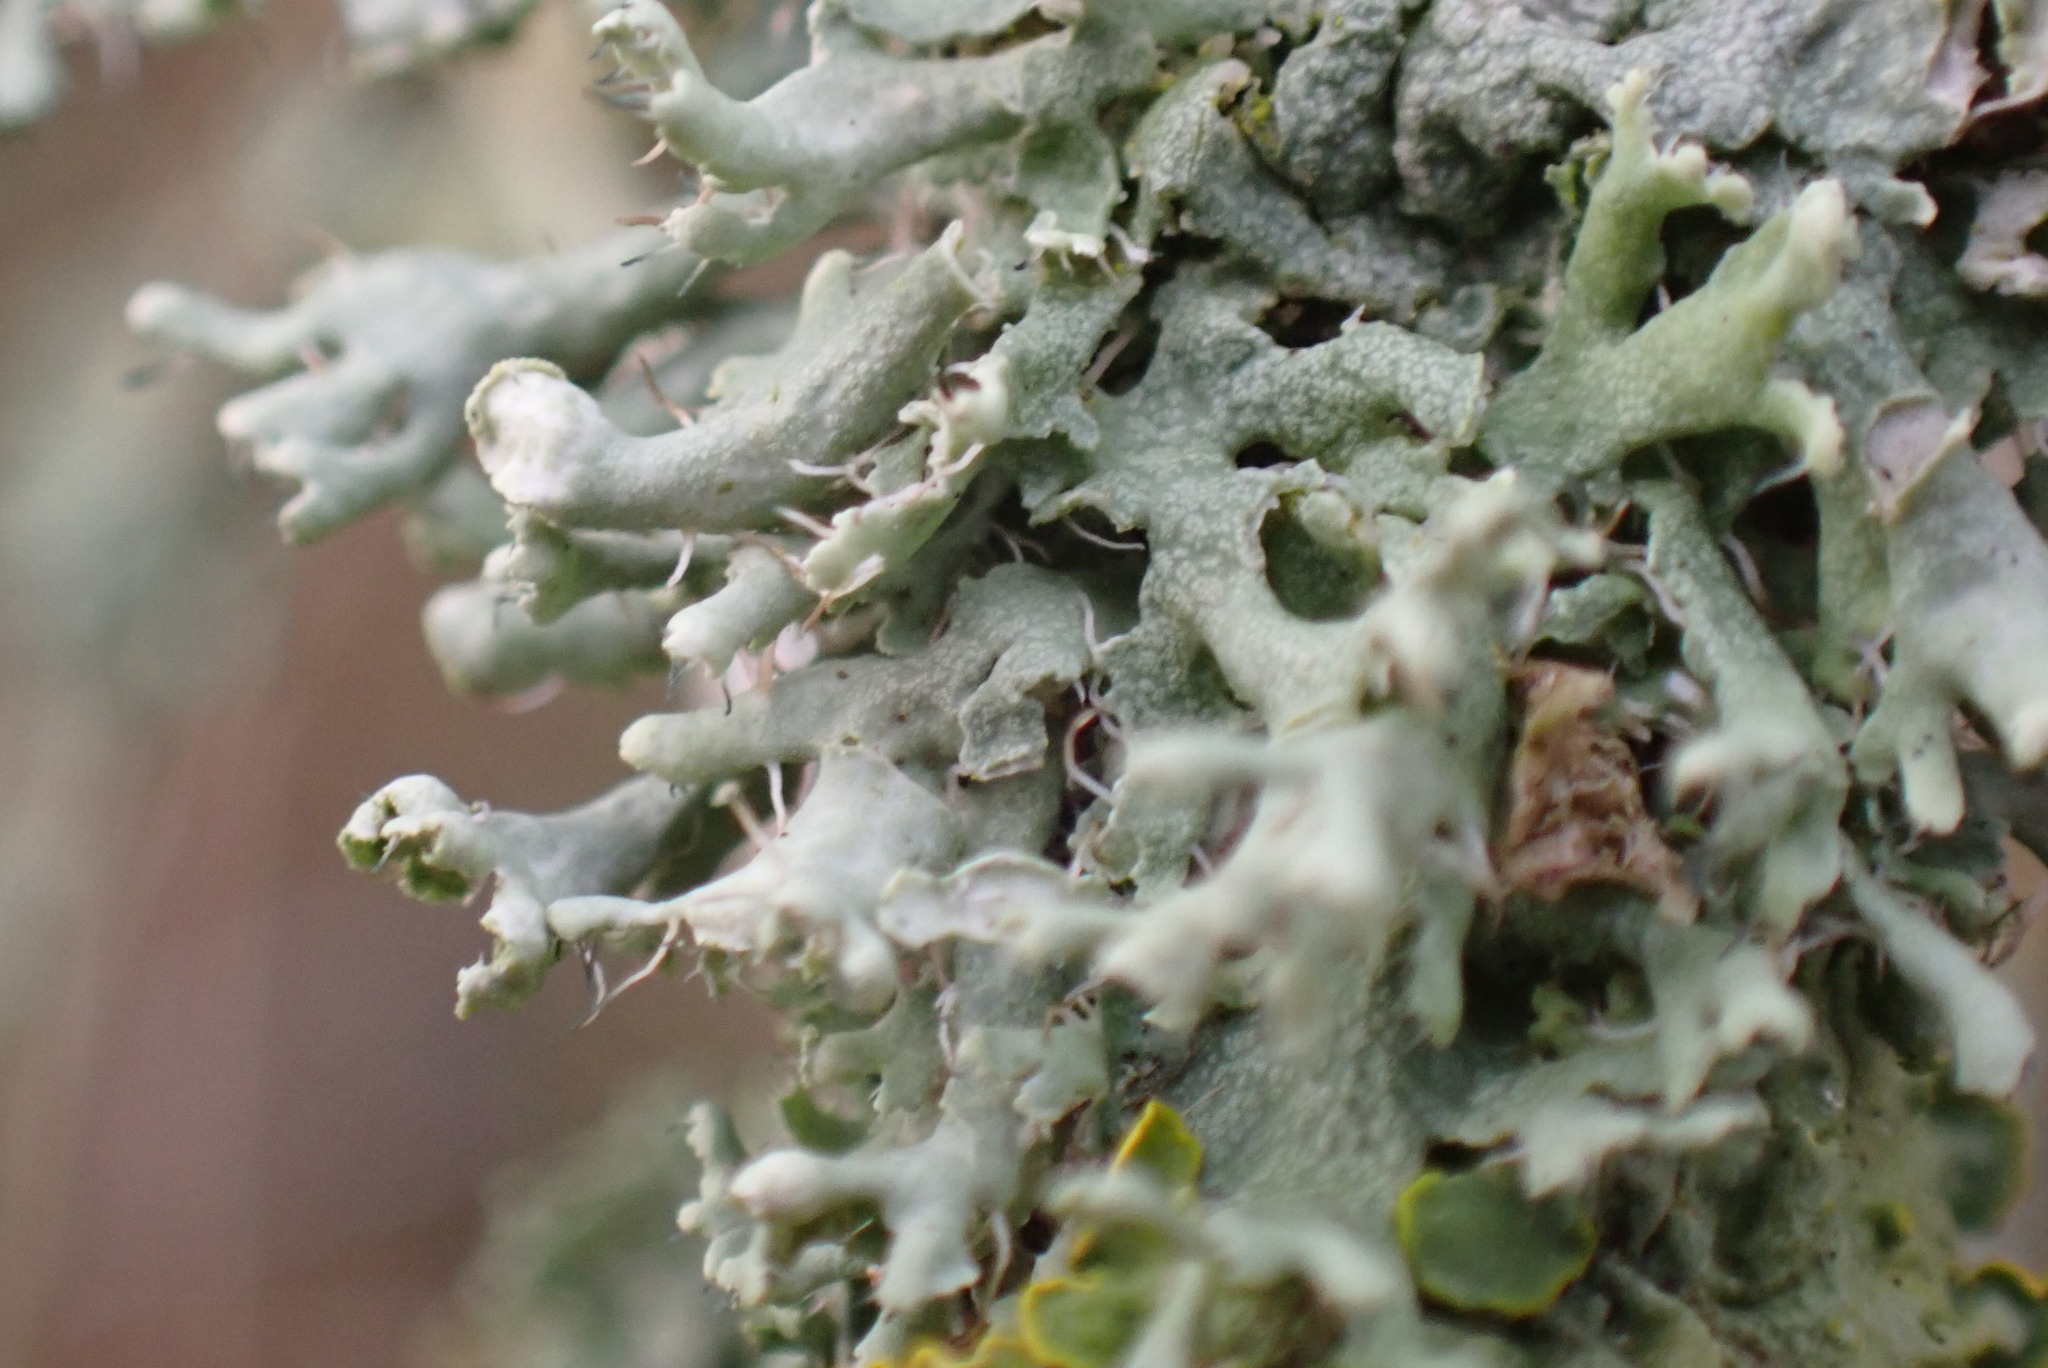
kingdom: Fungi
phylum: Ascomycota
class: Lecanoromycetes
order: Caliciales
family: Physciaceae
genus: Physcia
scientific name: Physcia adscendens
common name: Hooded rosette lichen
